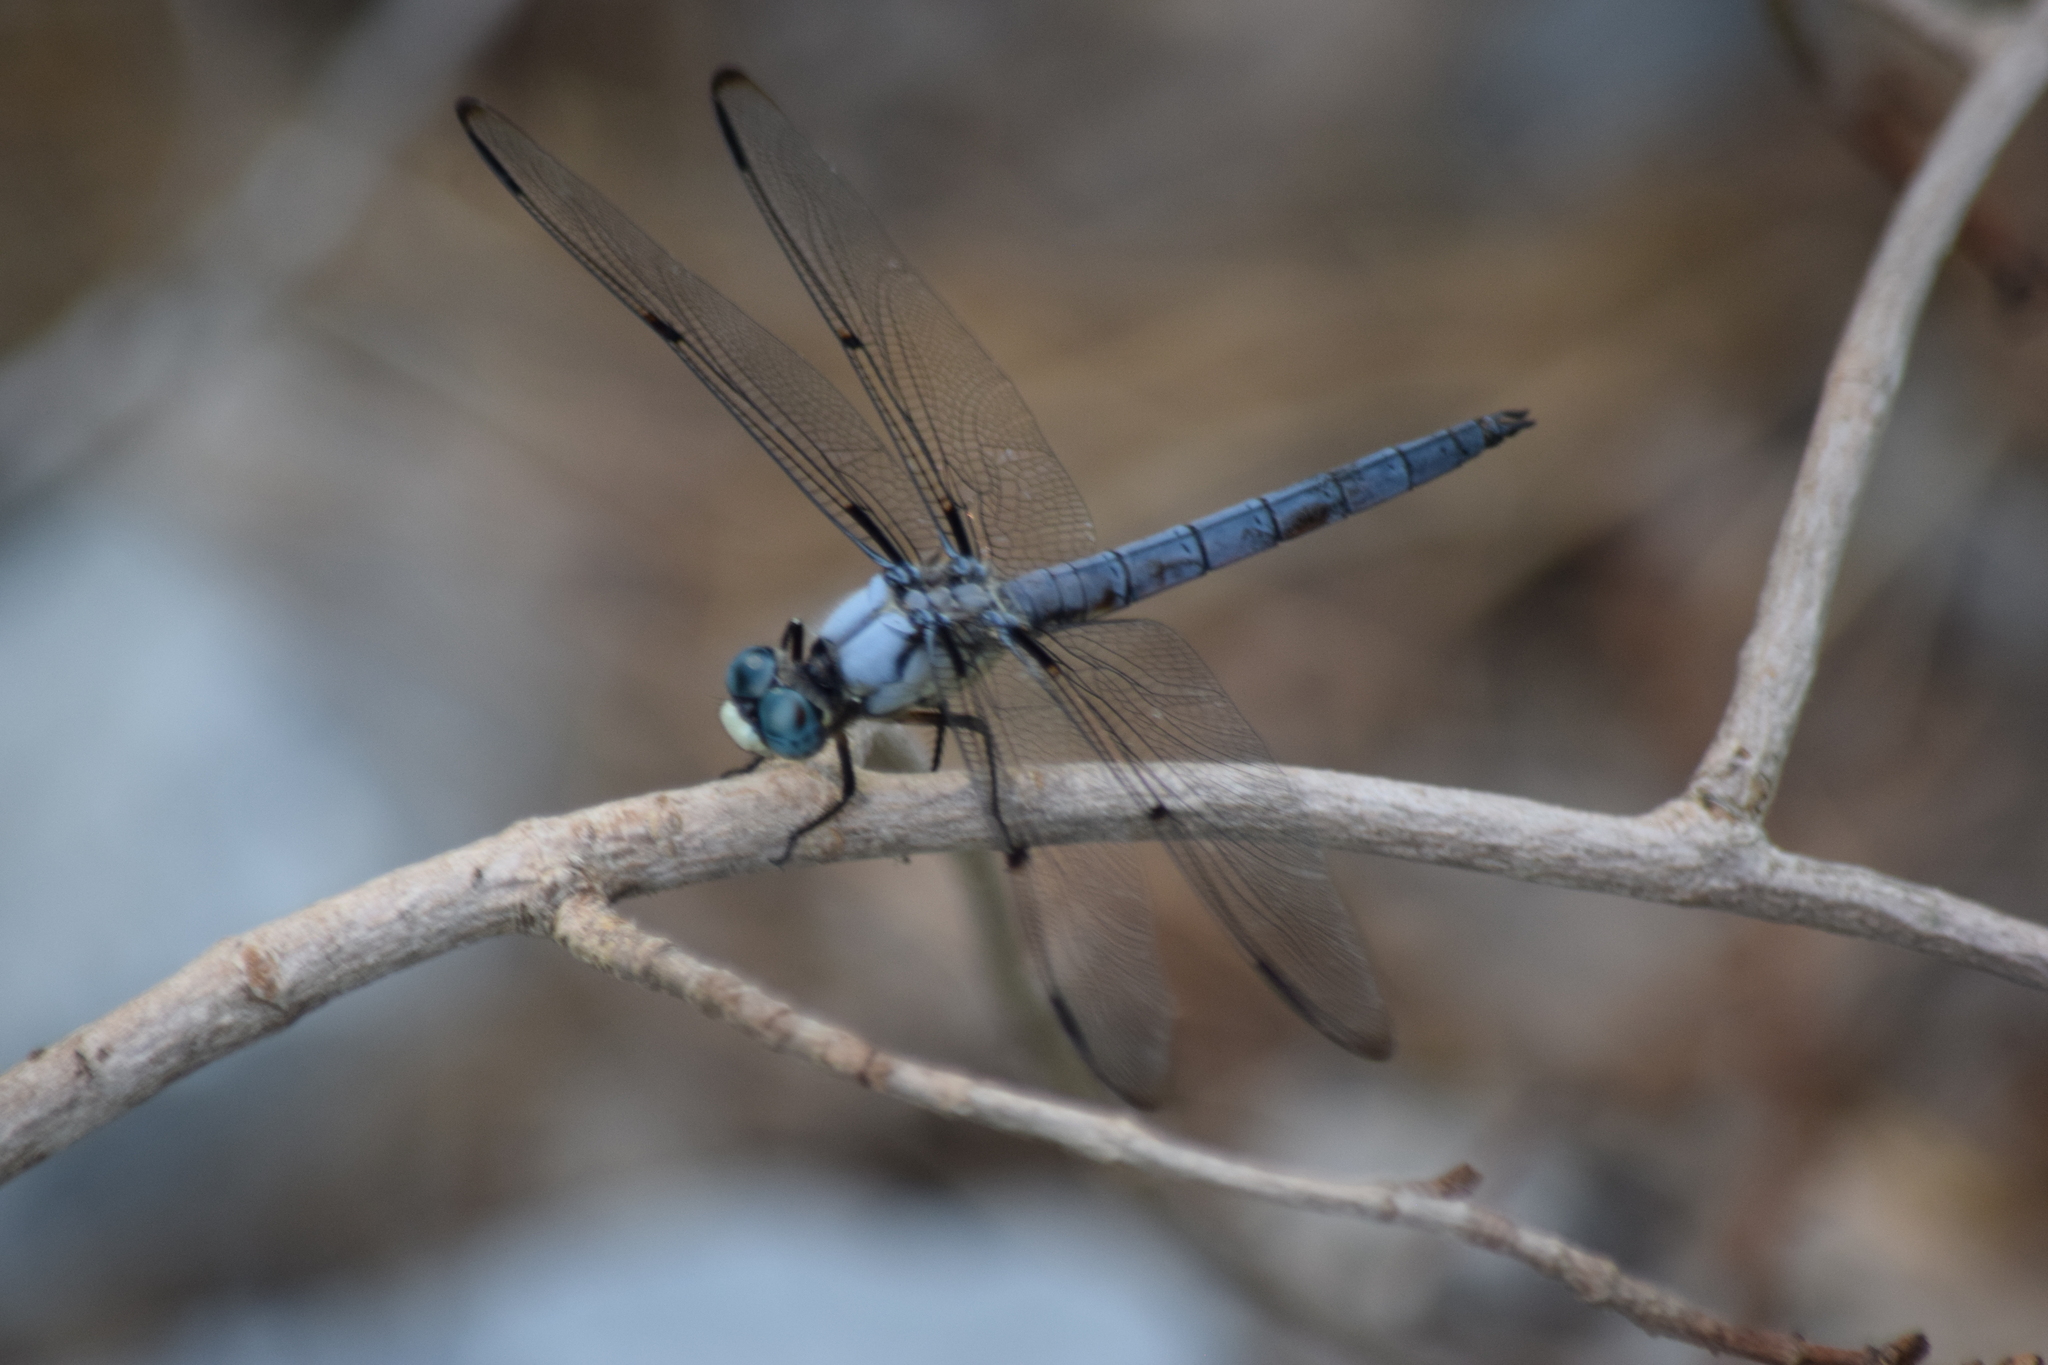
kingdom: Animalia
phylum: Arthropoda
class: Insecta
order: Odonata
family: Libellulidae
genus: Libellula
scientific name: Libellula vibrans
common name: Great blue skimmer
